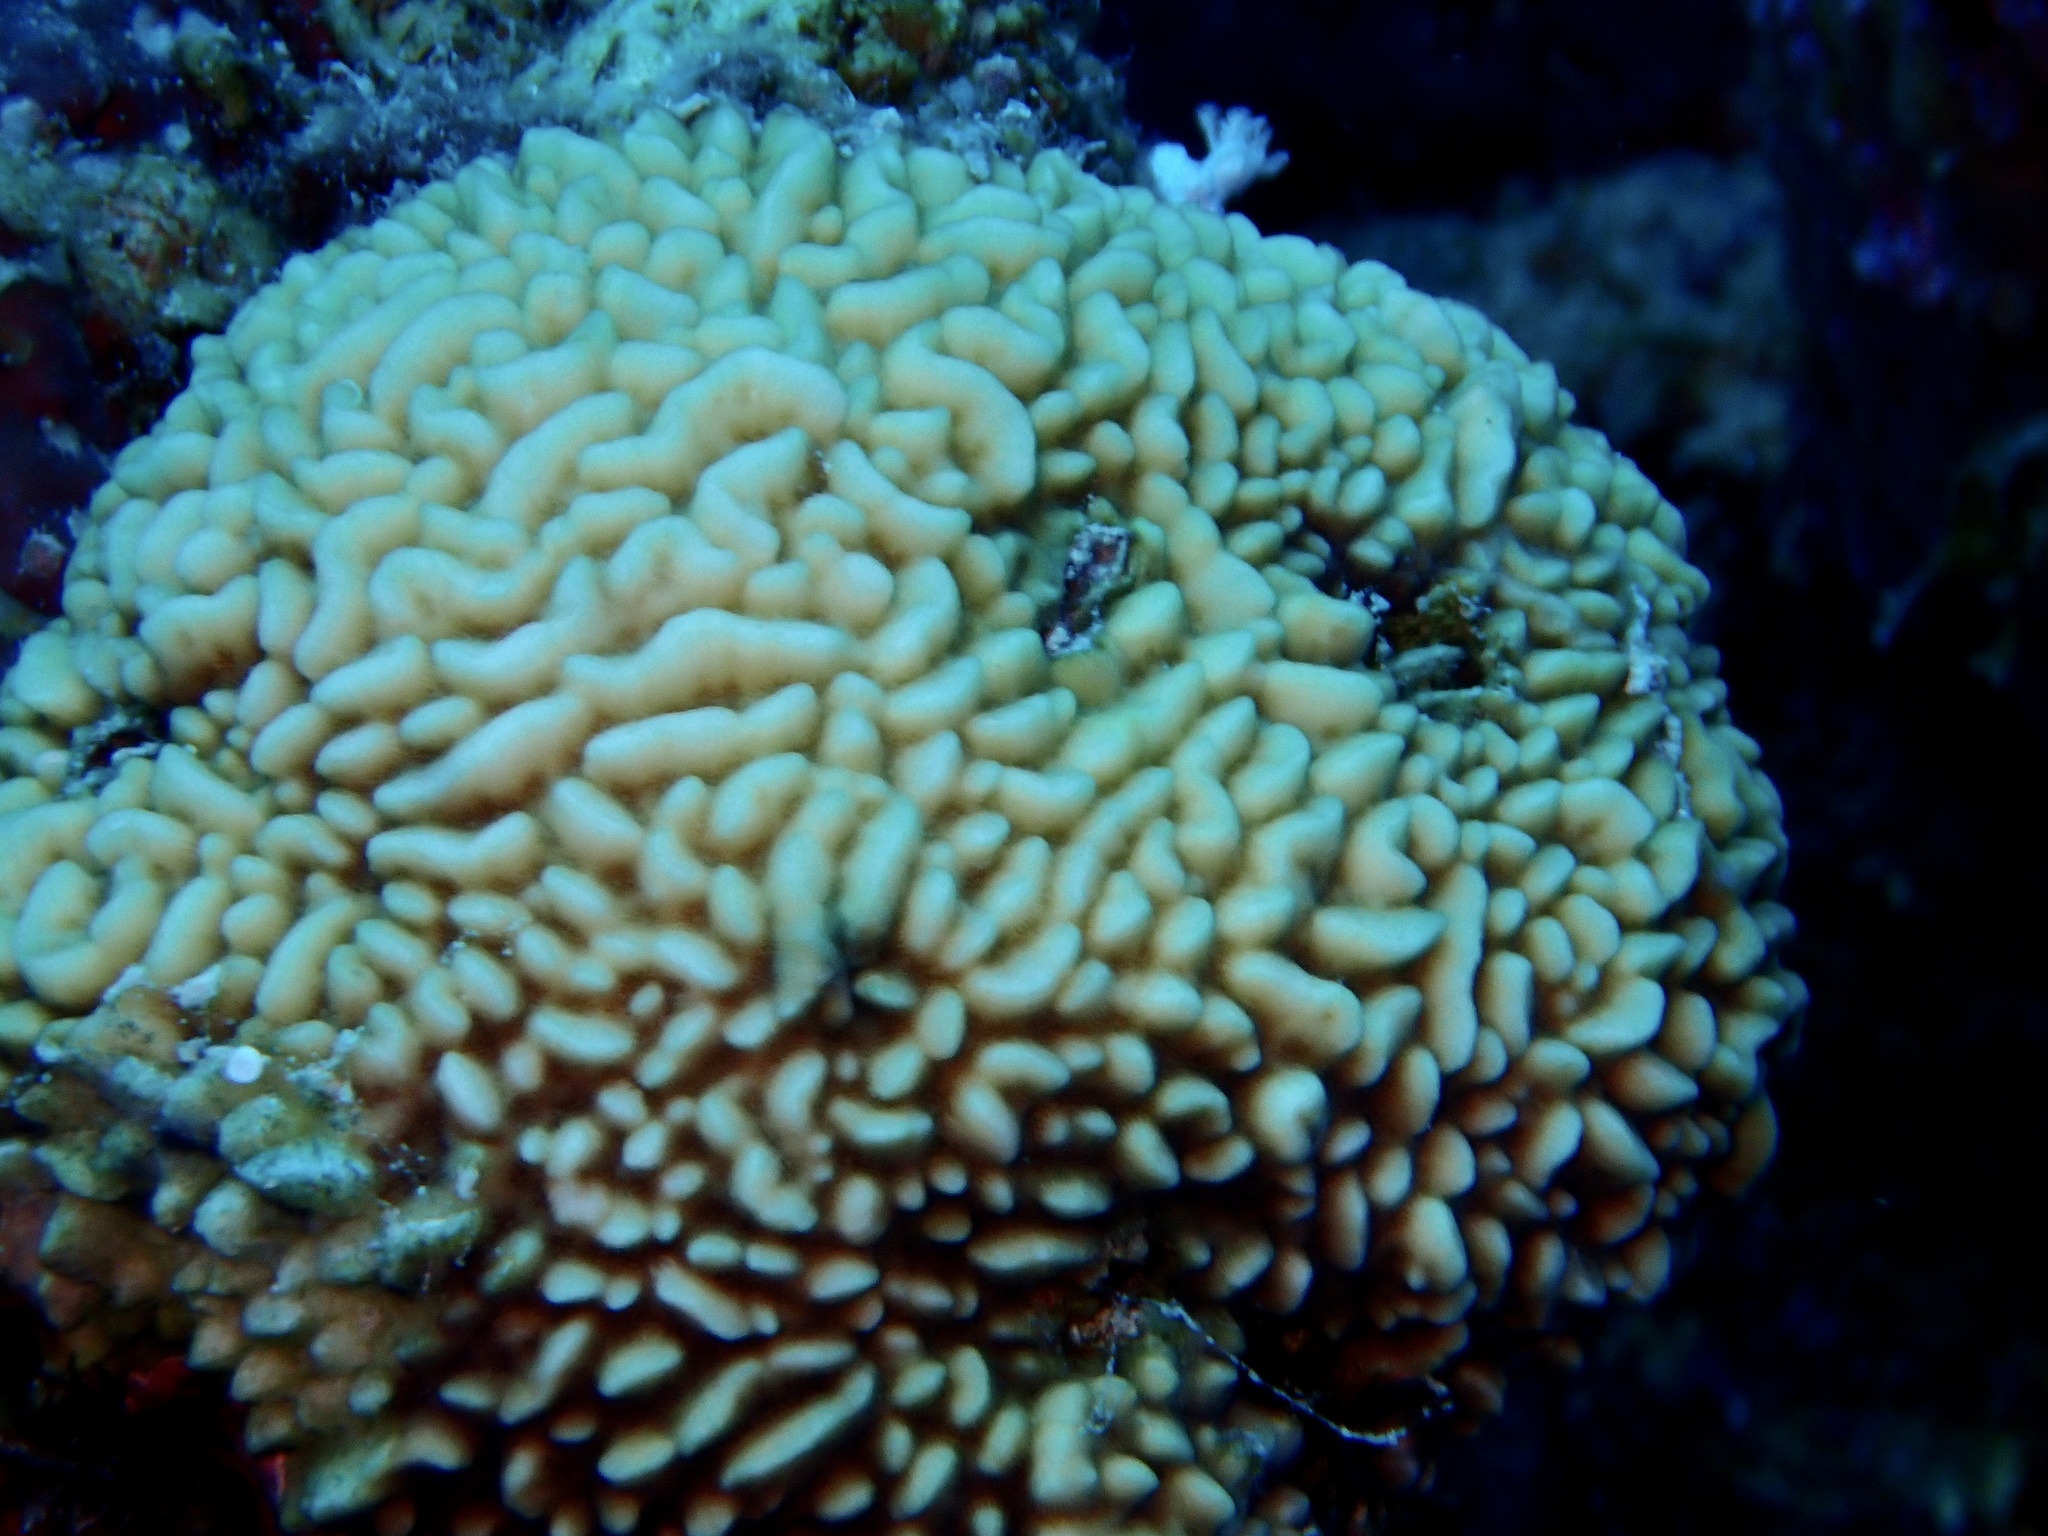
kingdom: Animalia
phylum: Cnidaria
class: Anthozoa
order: Scleractinia
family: Agariciidae
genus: Pavona
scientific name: Pavona varians
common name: Leaf coral
